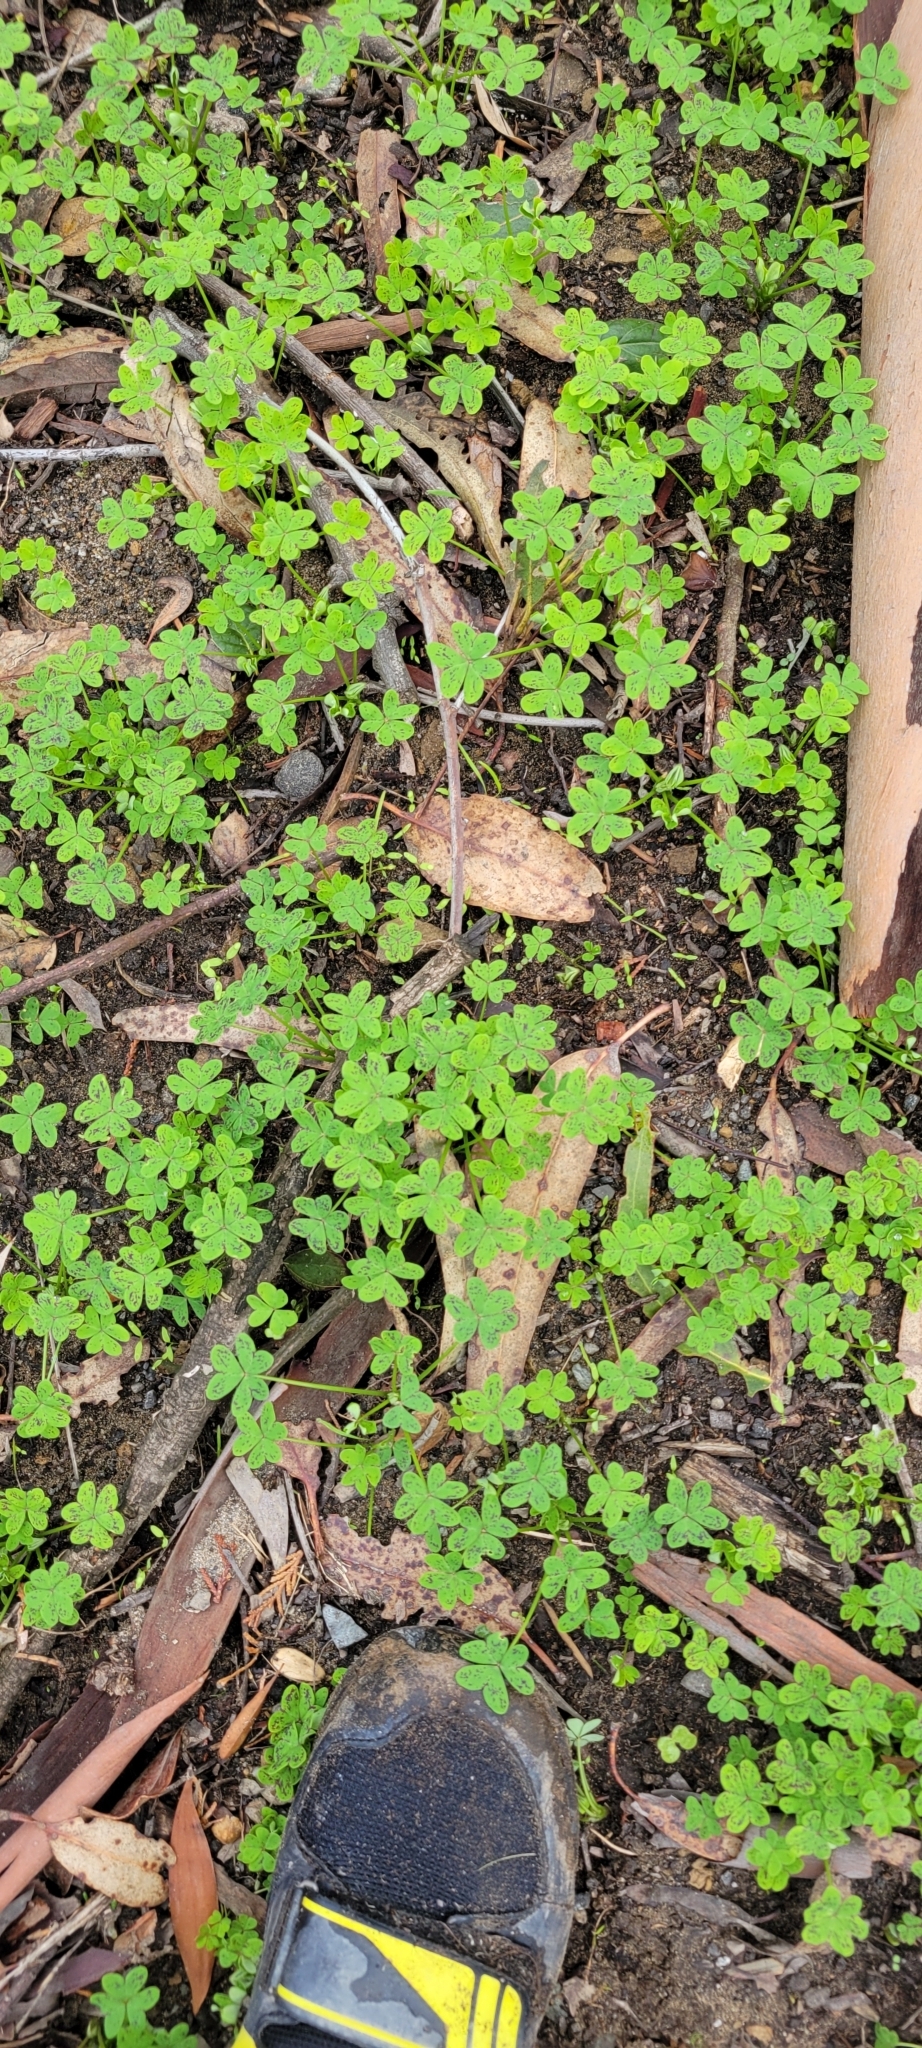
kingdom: Plantae
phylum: Tracheophyta
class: Magnoliopsida
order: Oxalidales
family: Oxalidaceae
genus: Oxalis
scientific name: Oxalis pes-caprae
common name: Bermuda-buttercup
